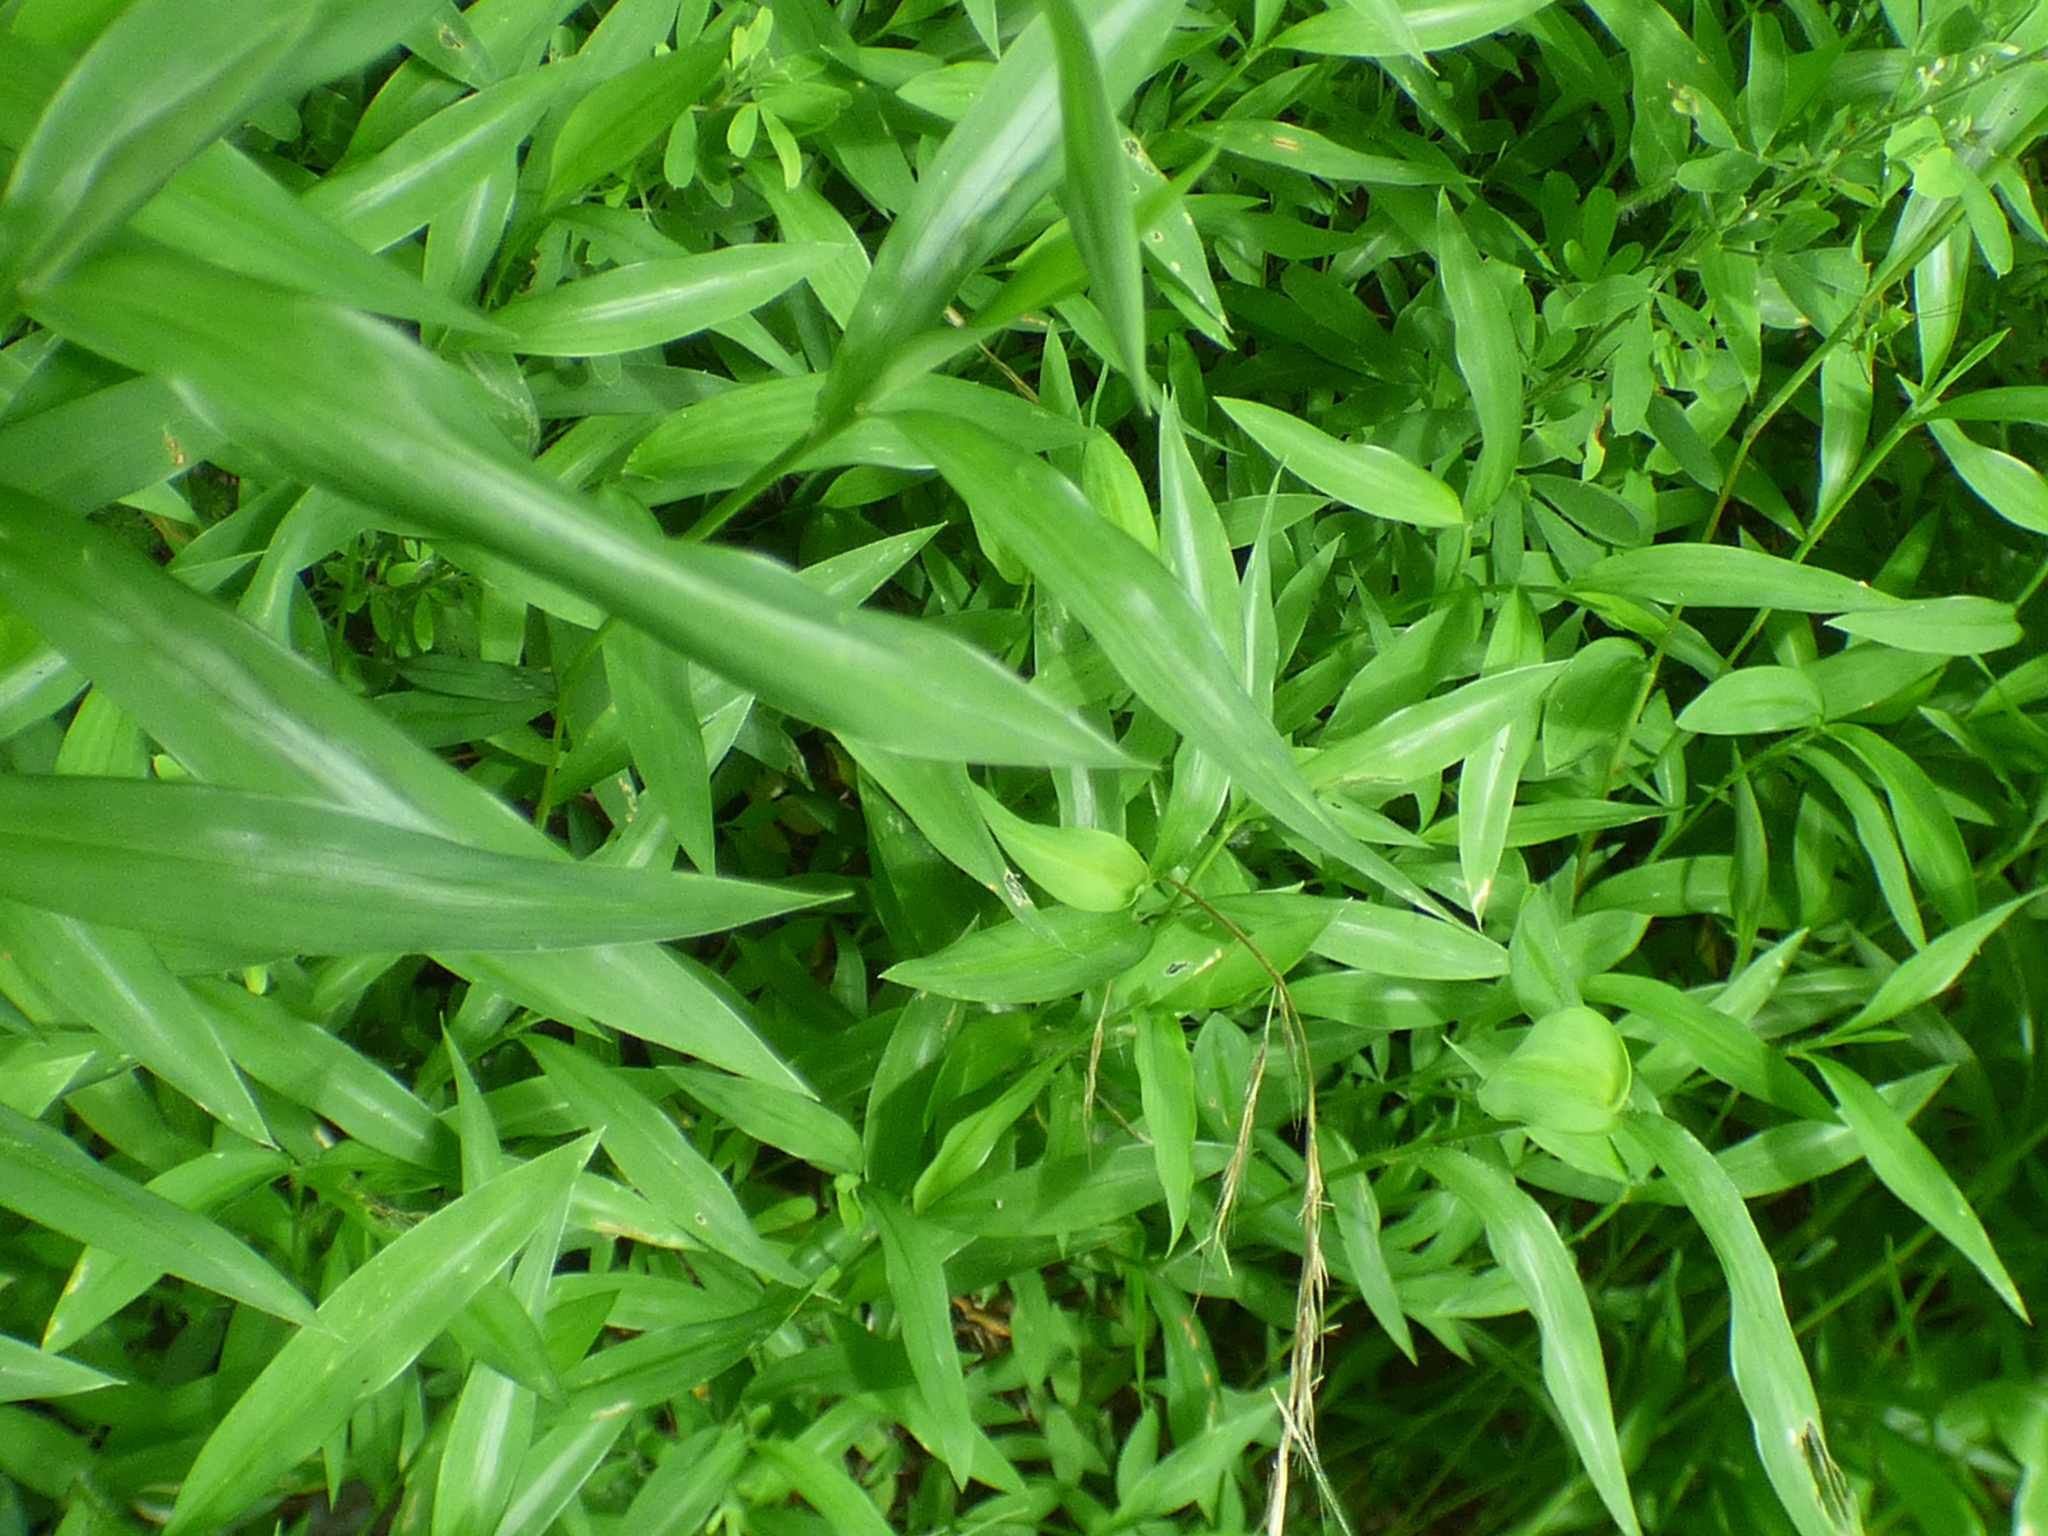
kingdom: Plantae
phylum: Tracheophyta
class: Liliopsida
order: Poales
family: Poaceae
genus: Microstegium
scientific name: Microstegium vimineum
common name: Japanese stiltgrass
